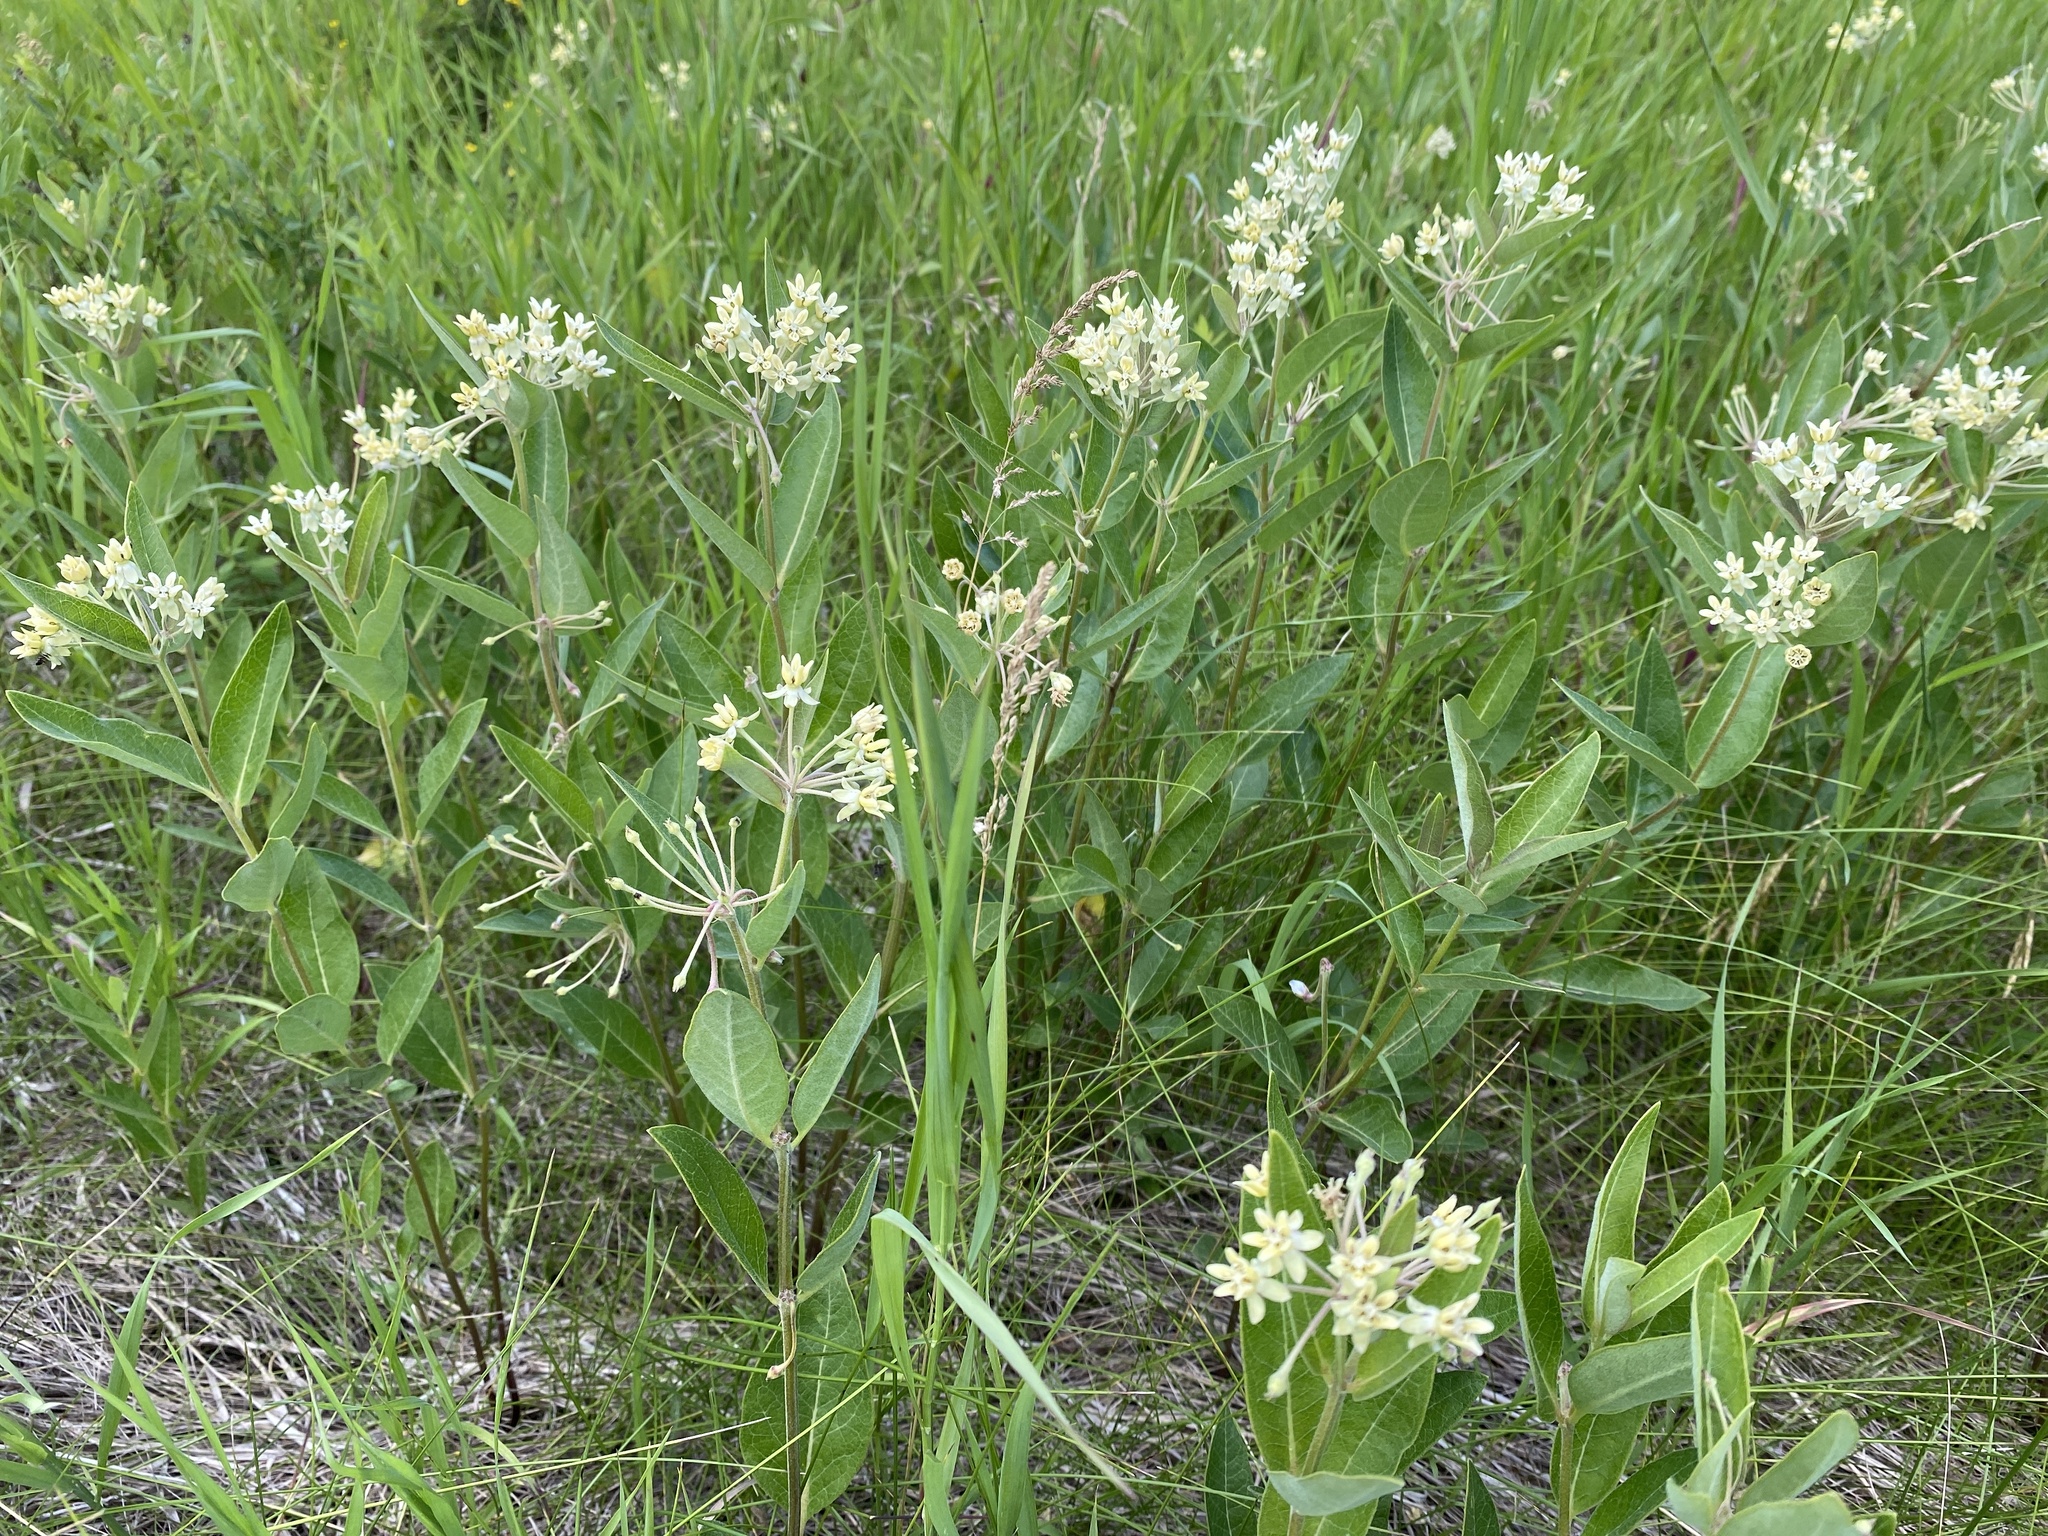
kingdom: Plantae
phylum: Tracheophyta
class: Magnoliopsida
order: Gentianales
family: Apocynaceae
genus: Asclepias
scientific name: Asclepias ovalifolia
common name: Dwarf milkweed
